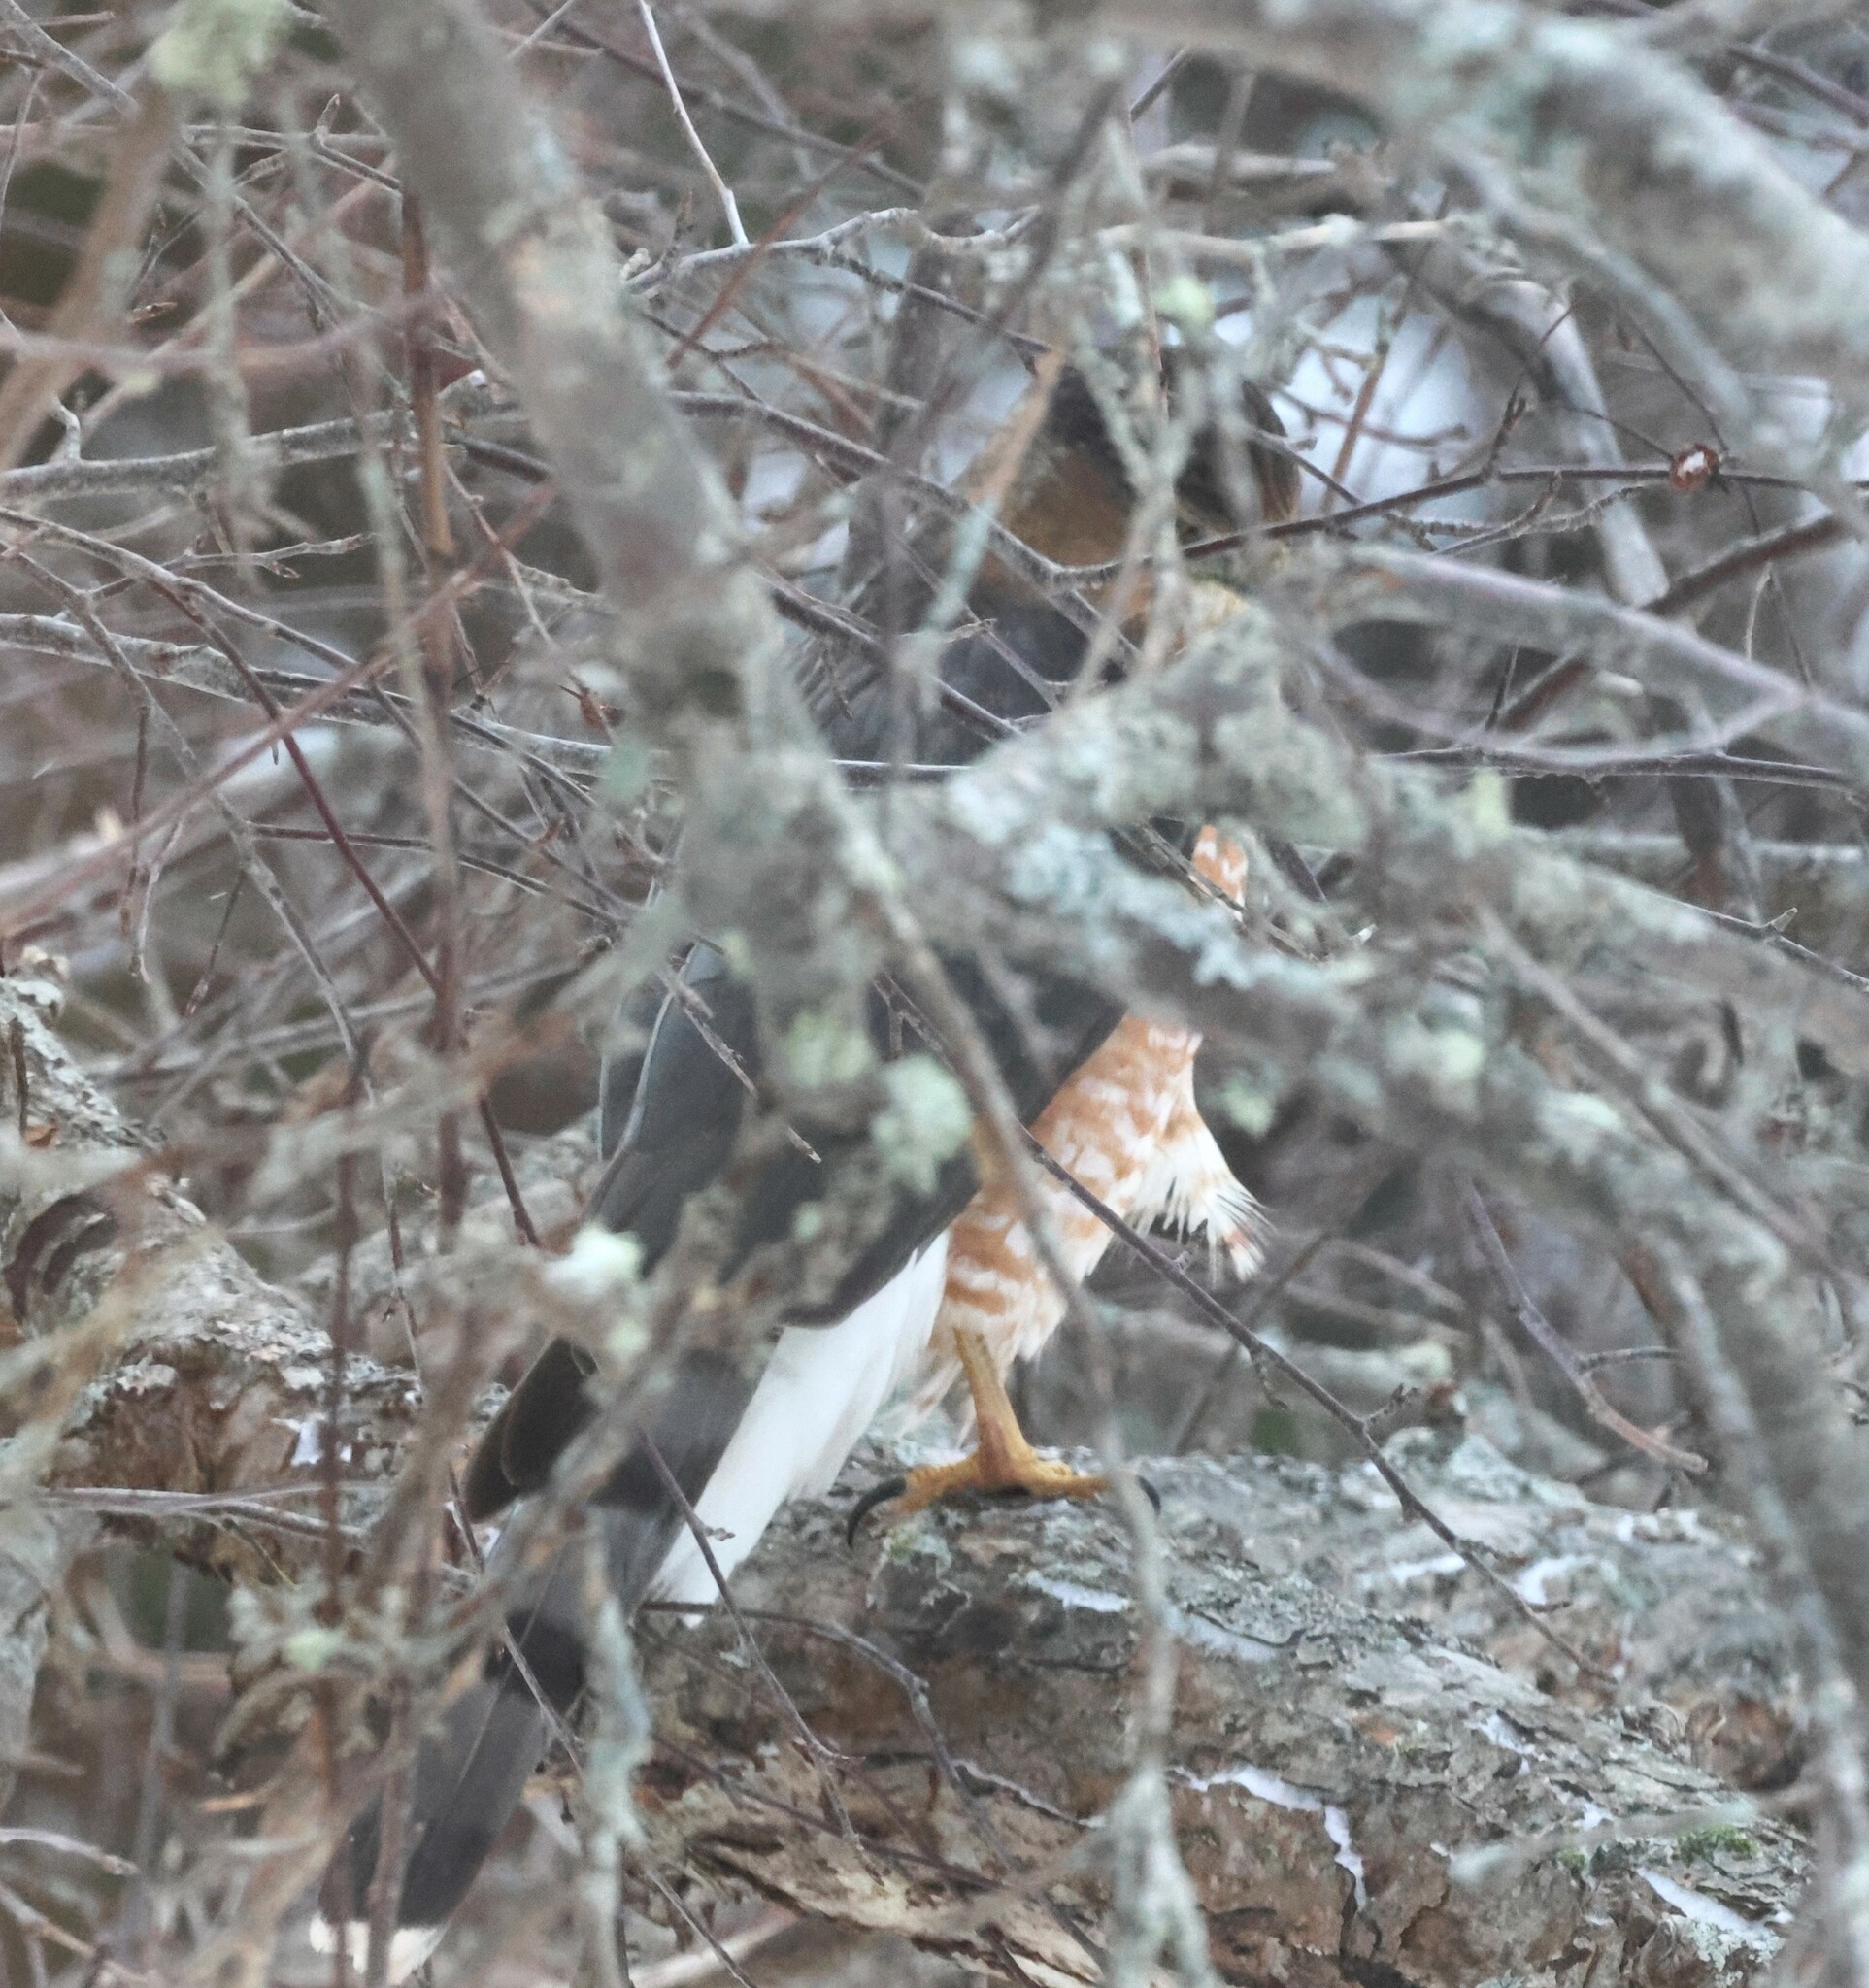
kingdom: Animalia
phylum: Chordata
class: Aves
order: Accipitriformes
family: Accipitridae
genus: Accipiter
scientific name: Accipiter cooperii
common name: Cooper's hawk
